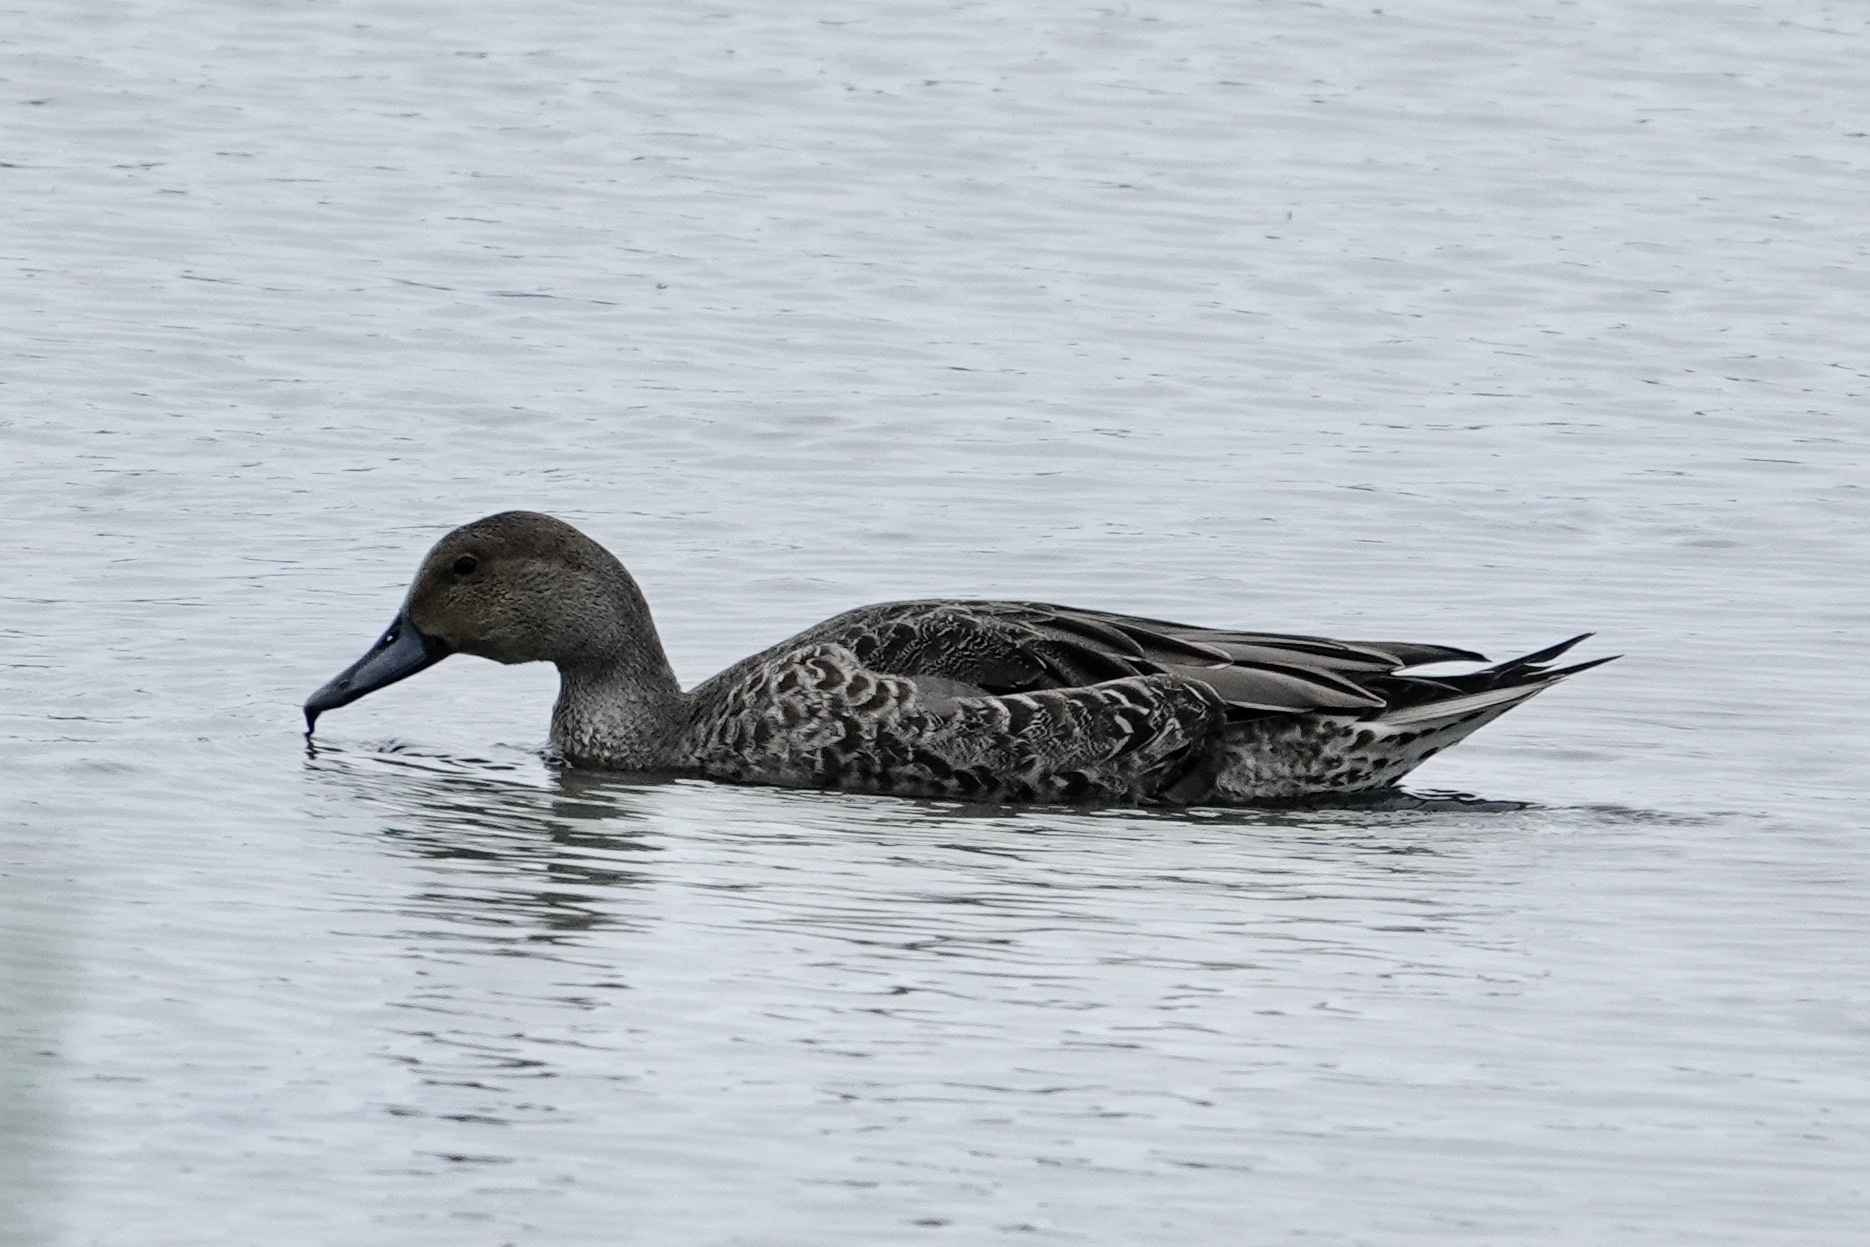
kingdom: Animalia
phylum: Chordata
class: Aves
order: Anseriformes
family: Anatidae
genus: Anas
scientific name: Anas acuta
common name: Northern pintail
